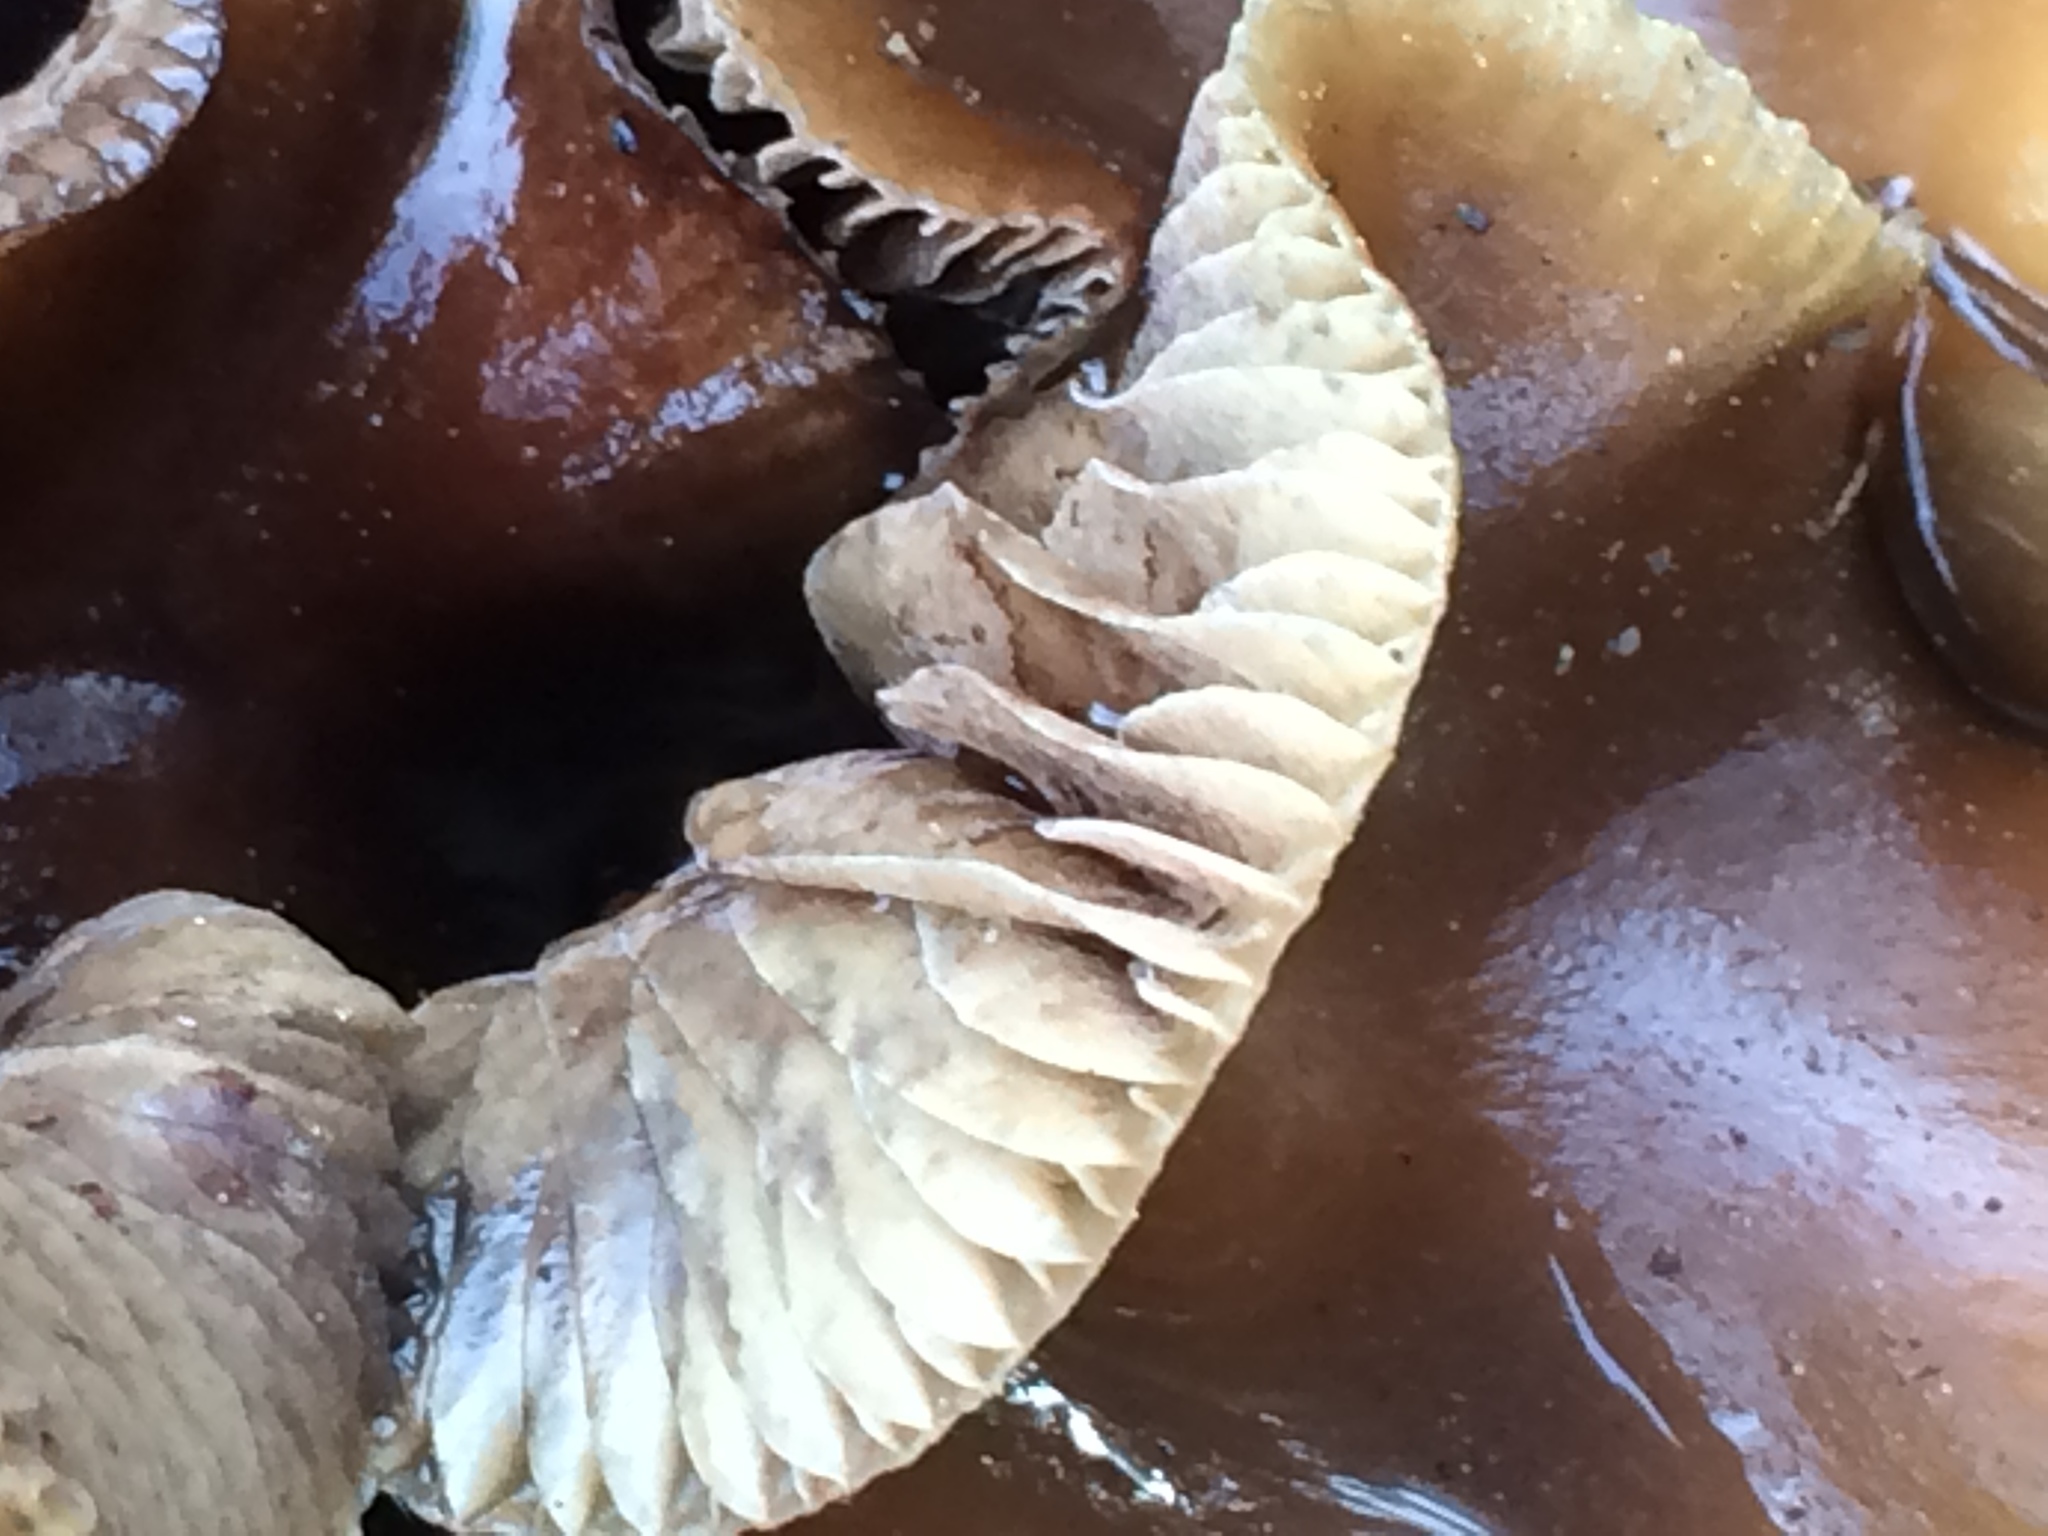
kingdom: Fungi
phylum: Basidiomycota
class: Agaricomycetes
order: Agaricales
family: Hymenogastraceae
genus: Psilocybe
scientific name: Psilocybe cyanescens
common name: Blueleg brownie
